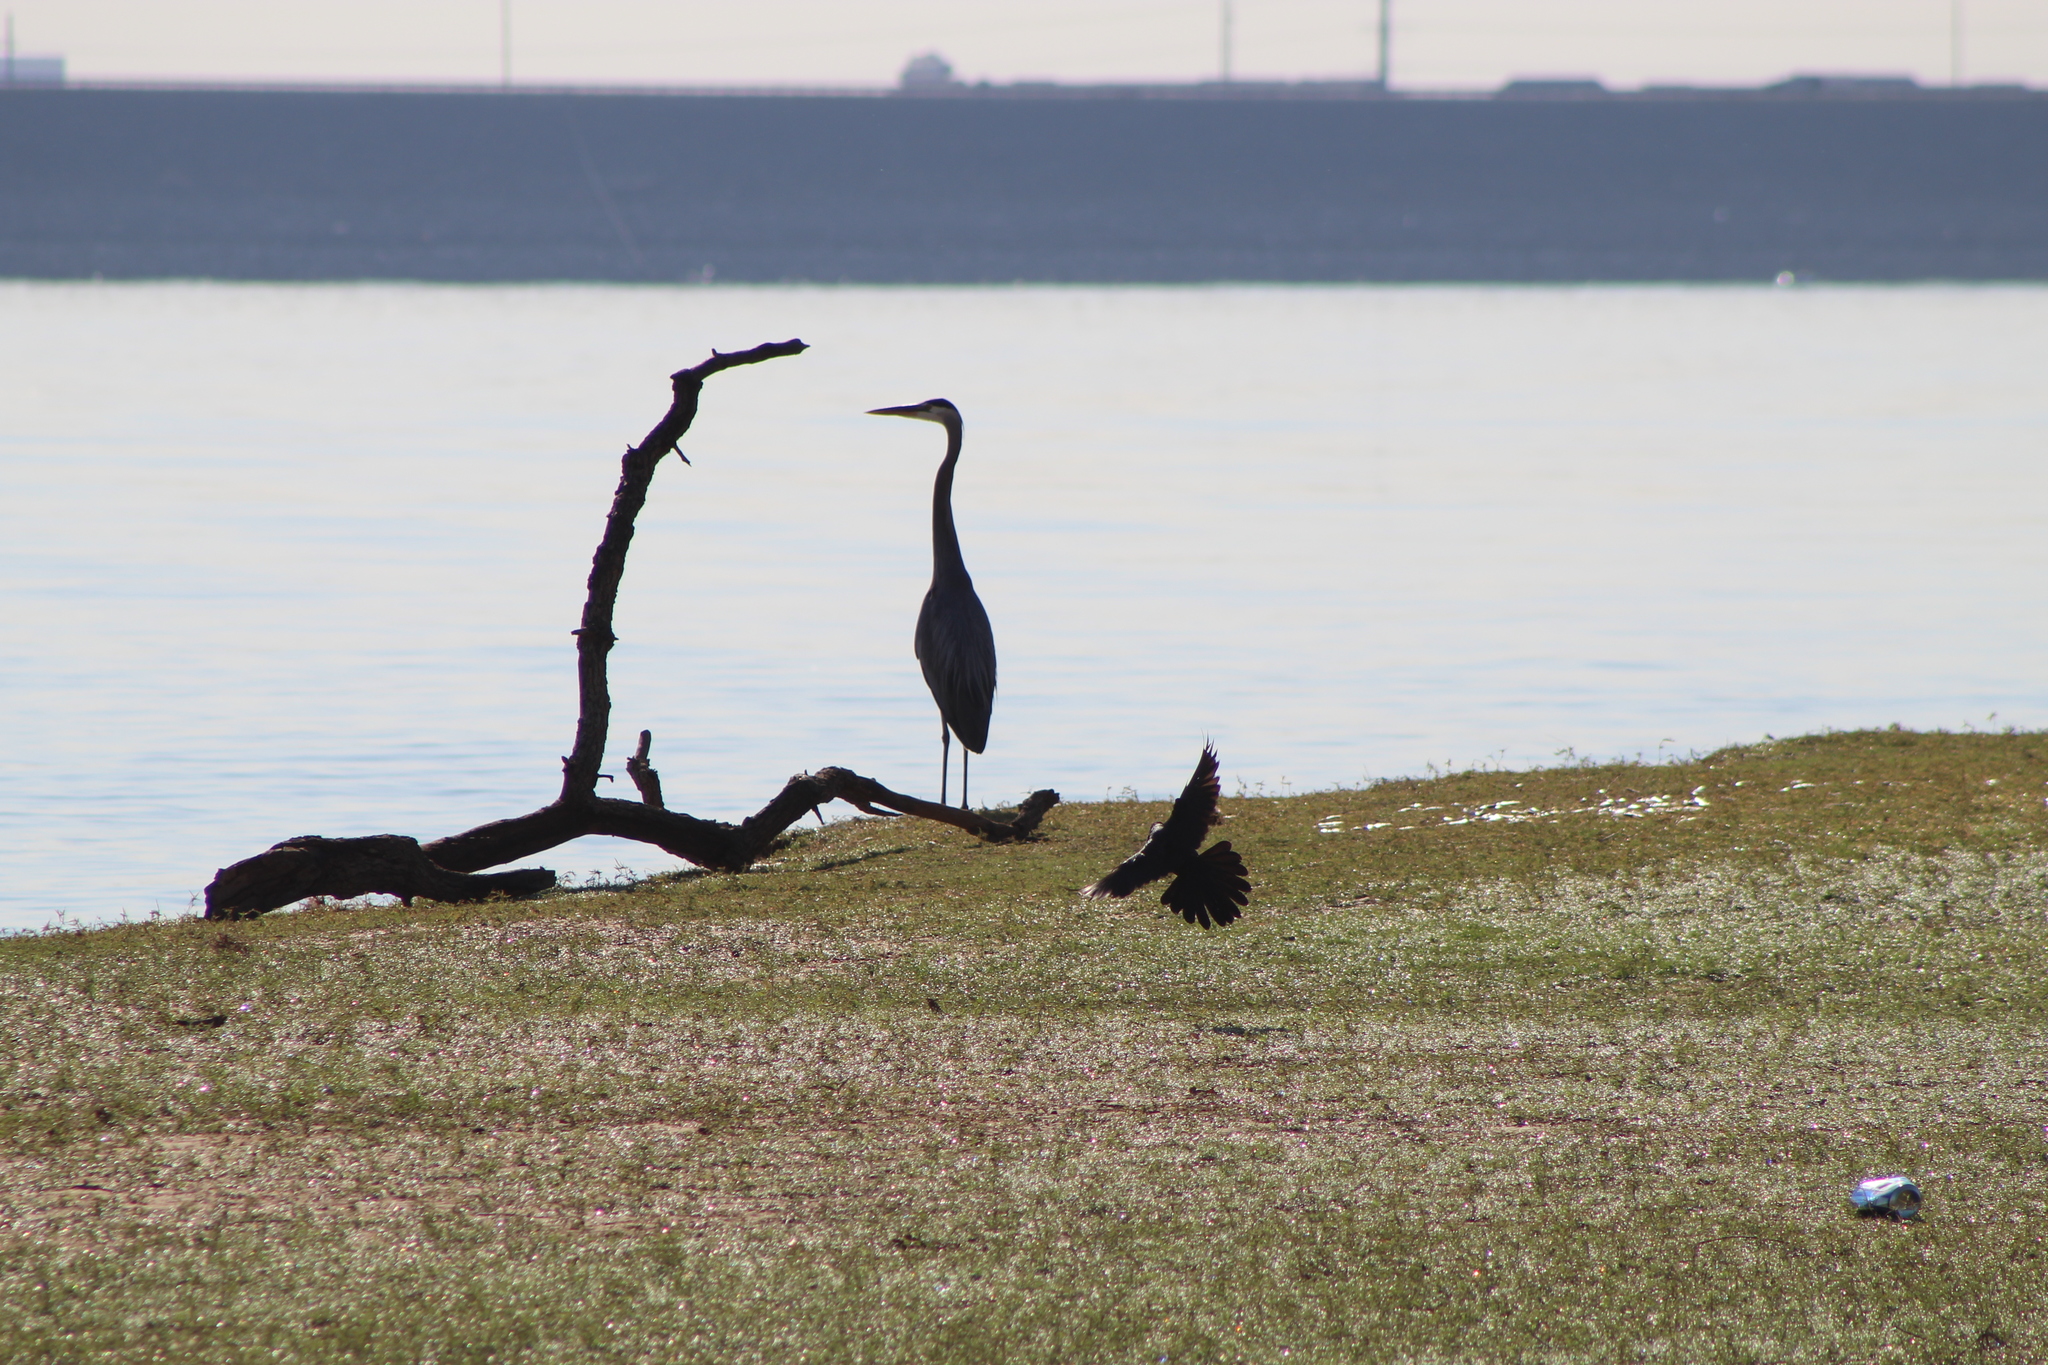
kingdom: Animalia
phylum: Chordata
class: Aves
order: Pelecaniformes
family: Ardeidae
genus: Ardea
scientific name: Ardea herodias
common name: Great blue heron
